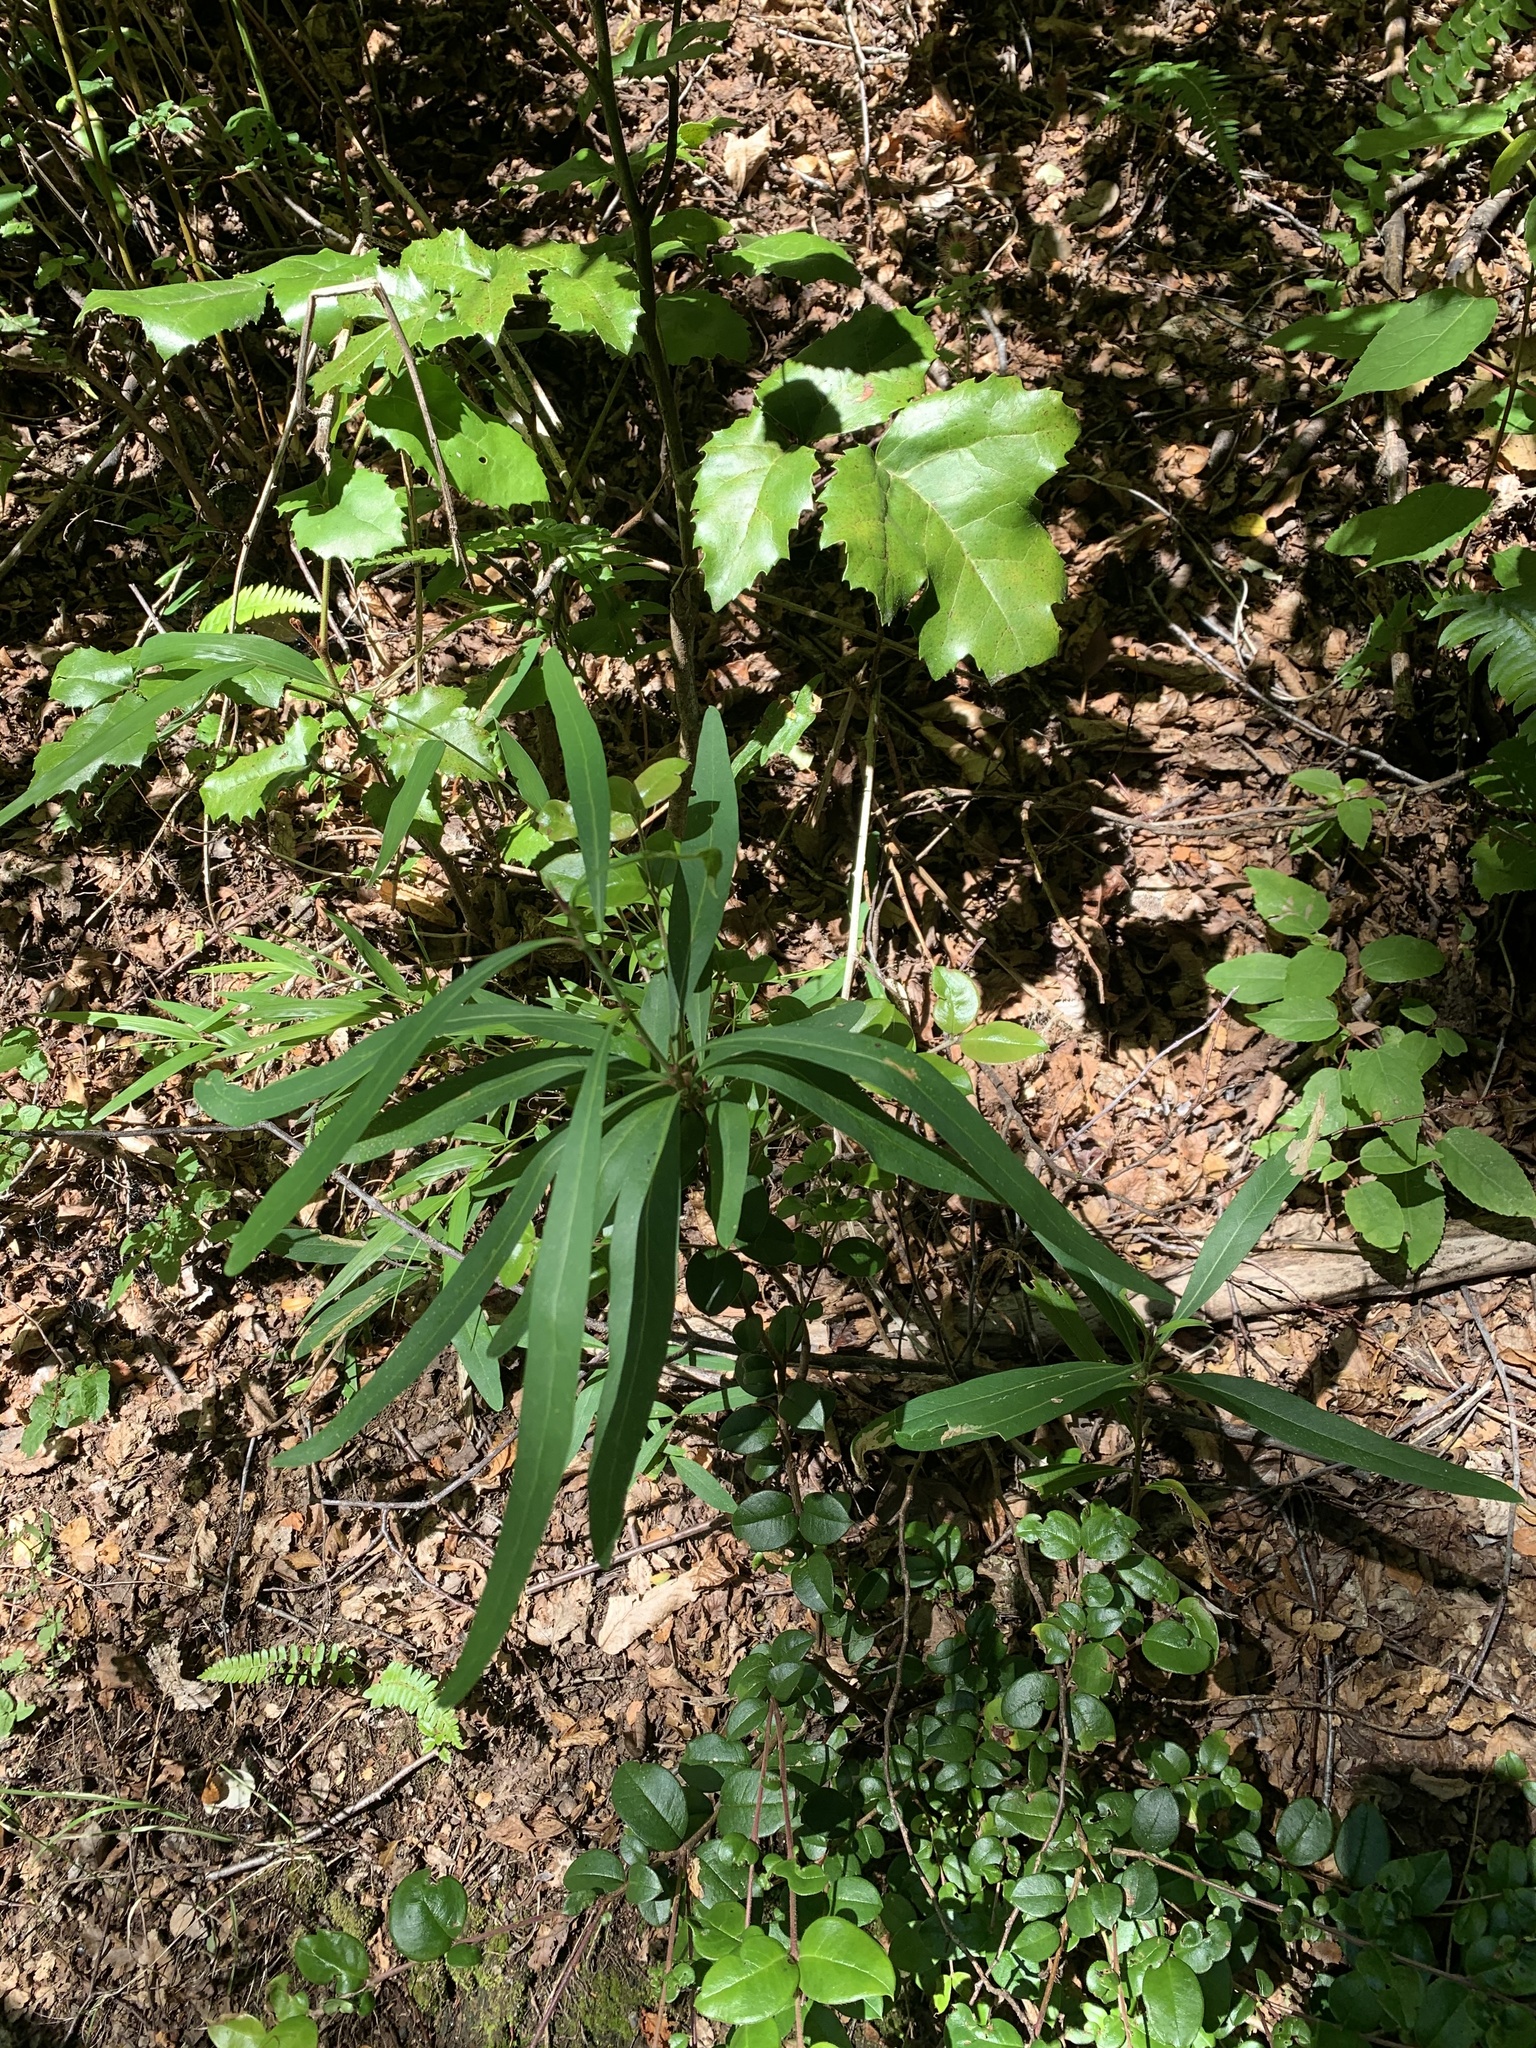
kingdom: Plantae
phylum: Tracheophyta
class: Magnoliopsida
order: Proteales
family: Proteaceae
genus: Embothrium
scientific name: Embothrium coccineum
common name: Chilean firebush
